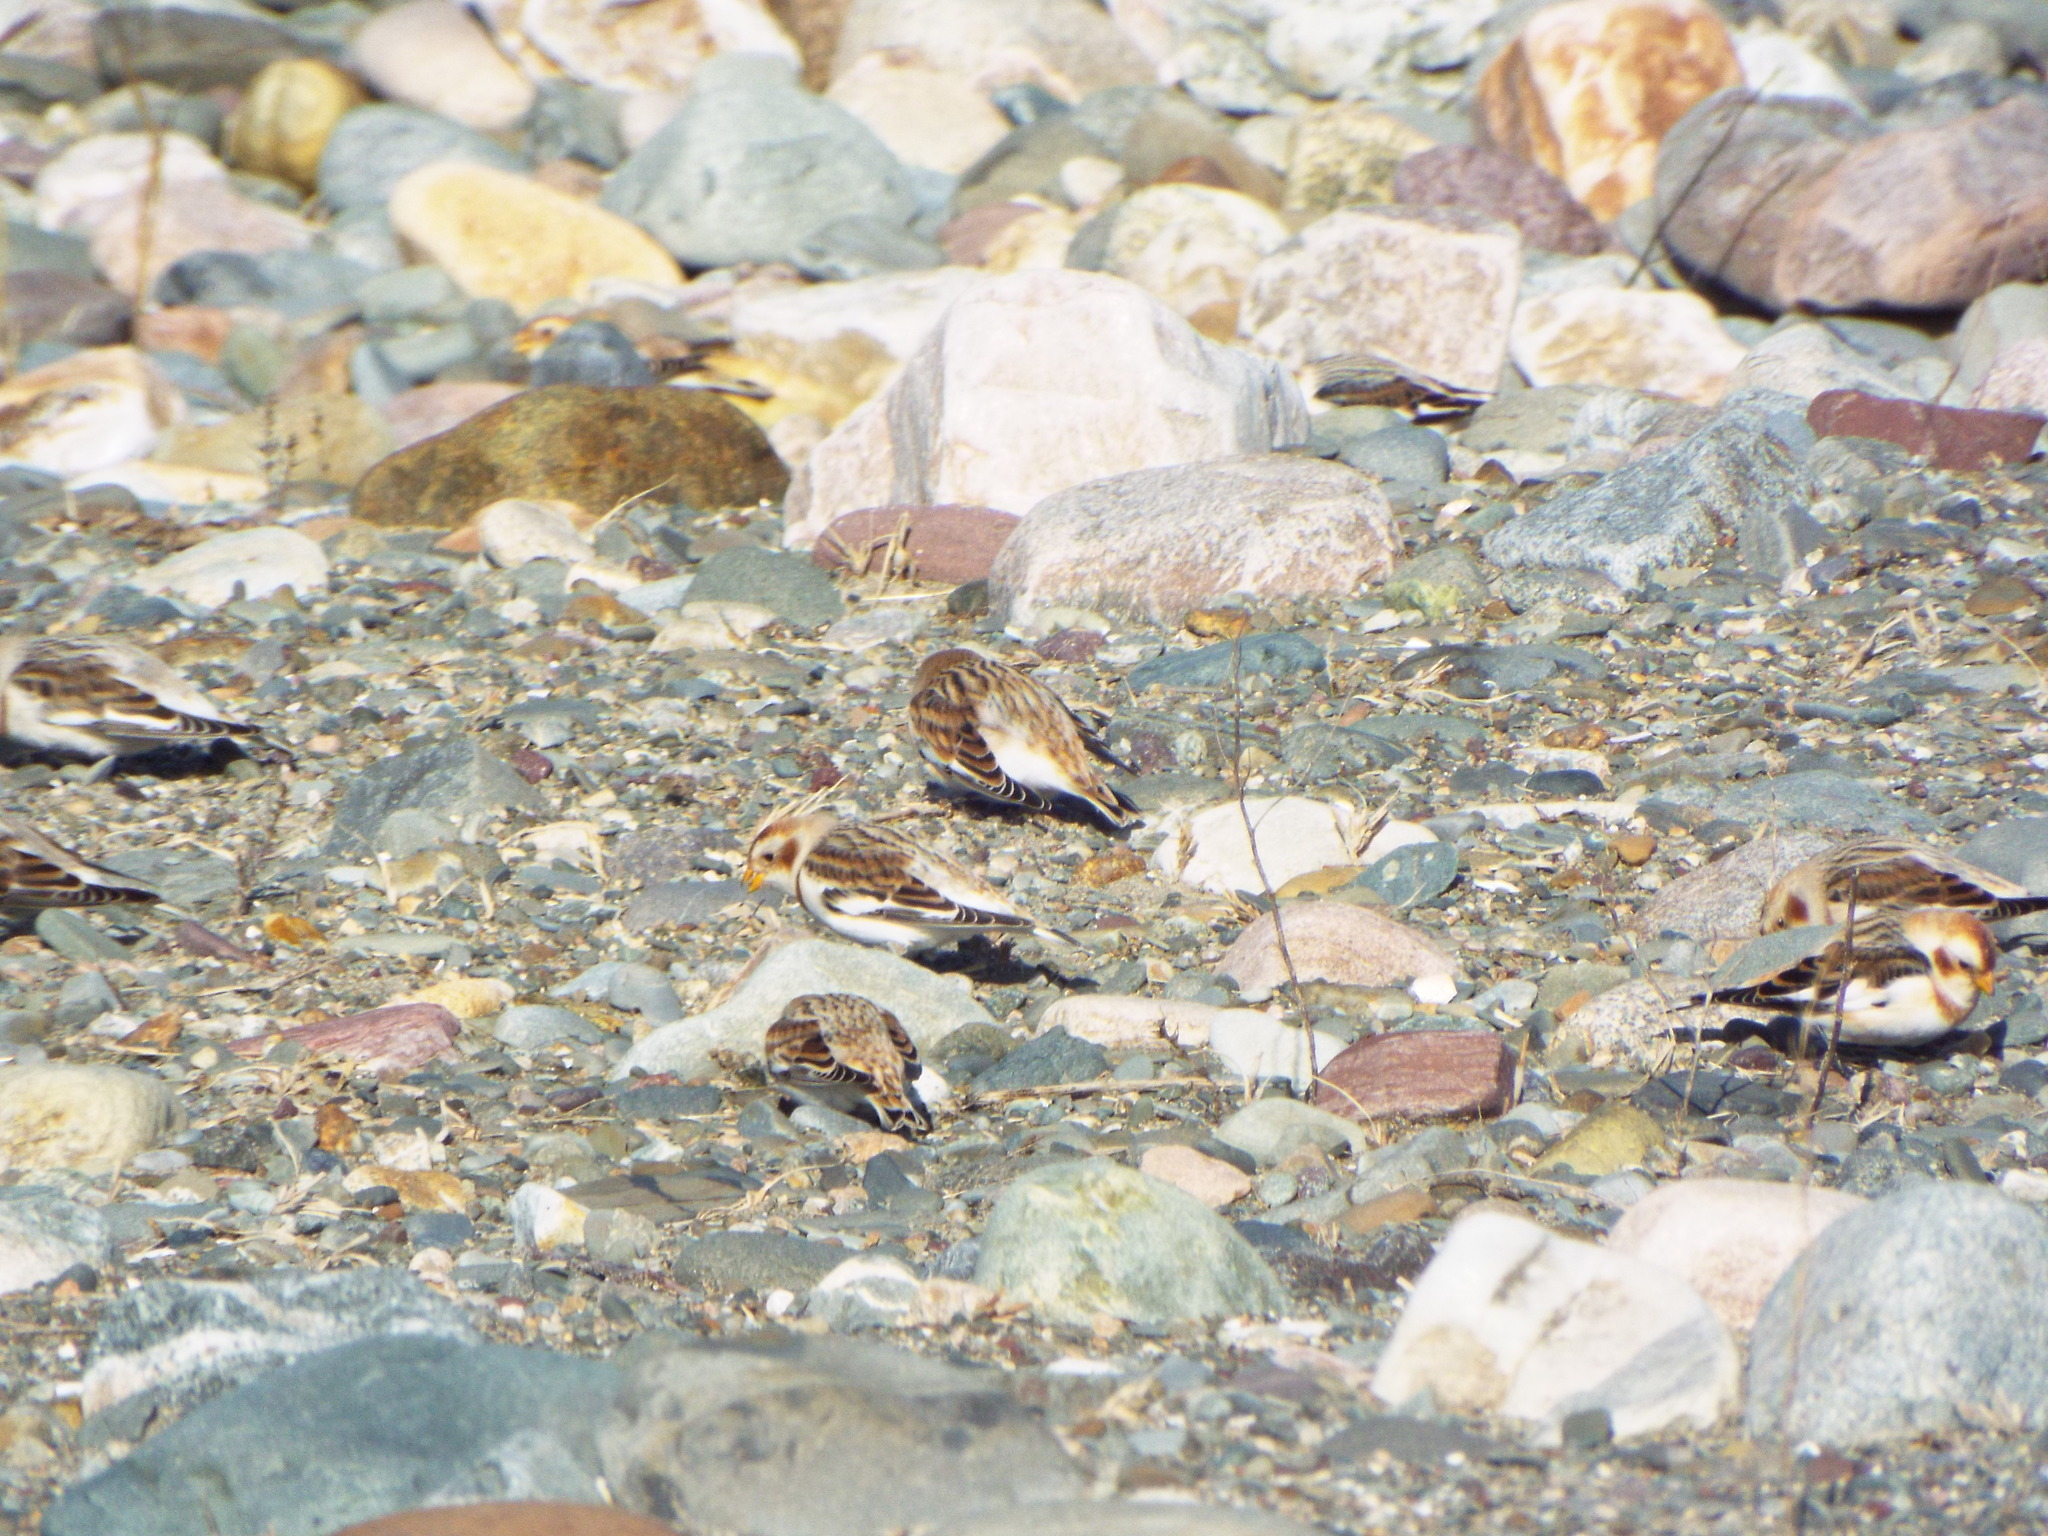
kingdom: Animalia
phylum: Chordata
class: Aves
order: Passeriformes
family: Calcariidae
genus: Plectrophenax
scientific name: Plectrophenax nivalis
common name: Snow bunting
